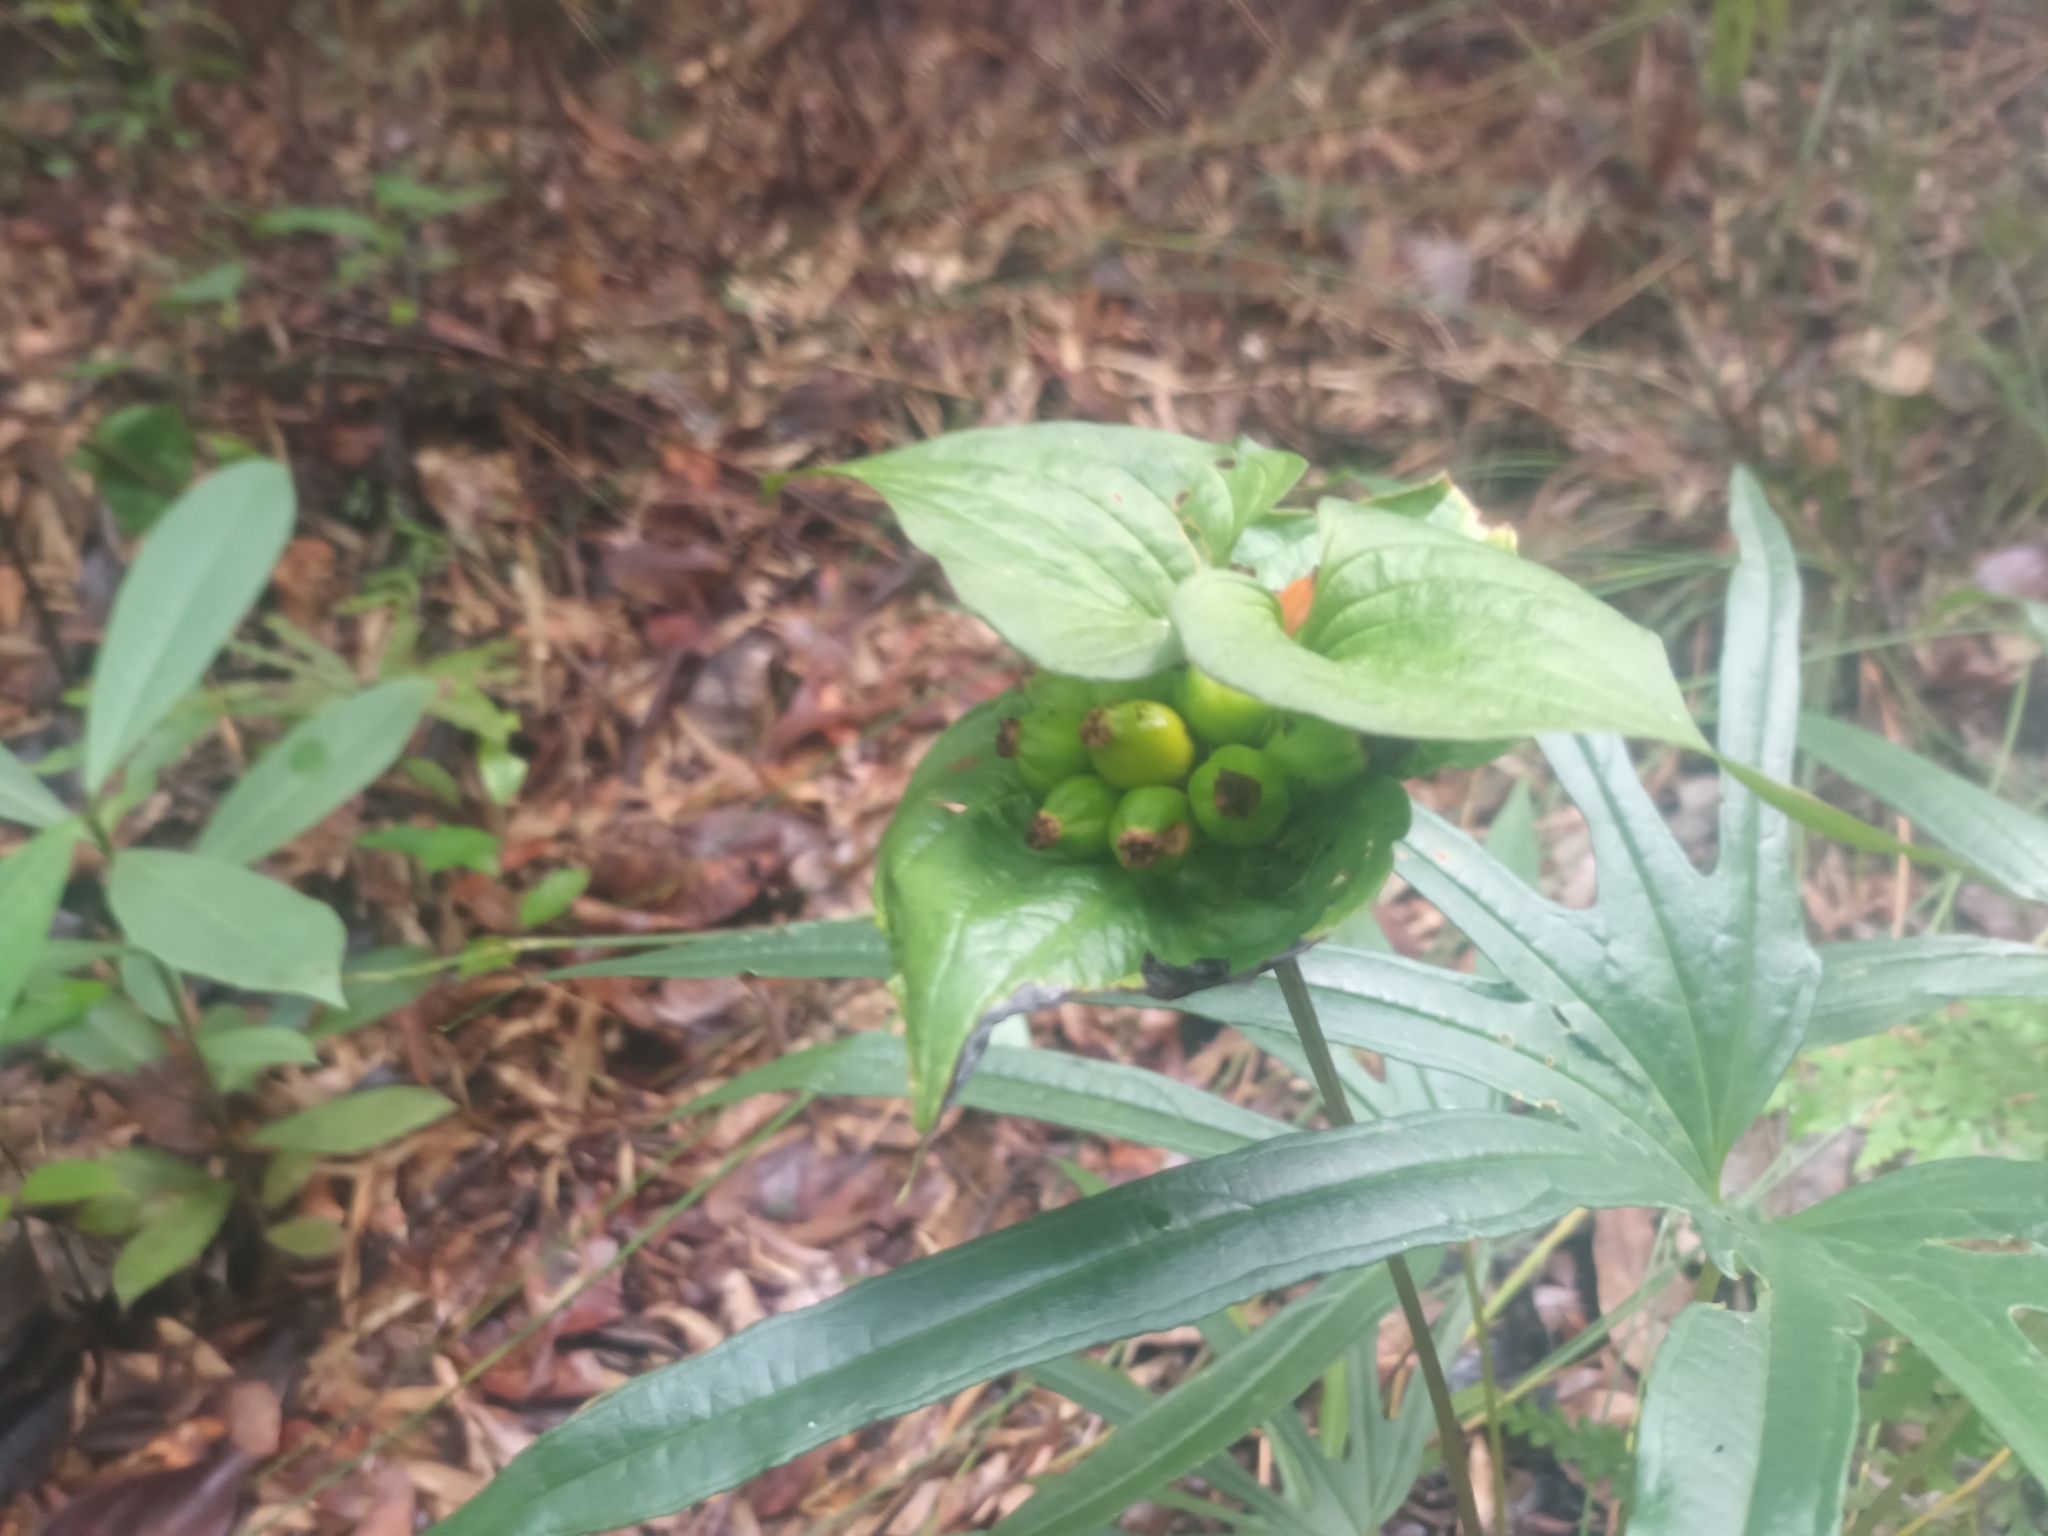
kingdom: Plantae
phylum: Tracheophyta
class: Liliopsida
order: Dioscoreales
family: Dioscoreaceae
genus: Tacca
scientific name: Tacca palmata
